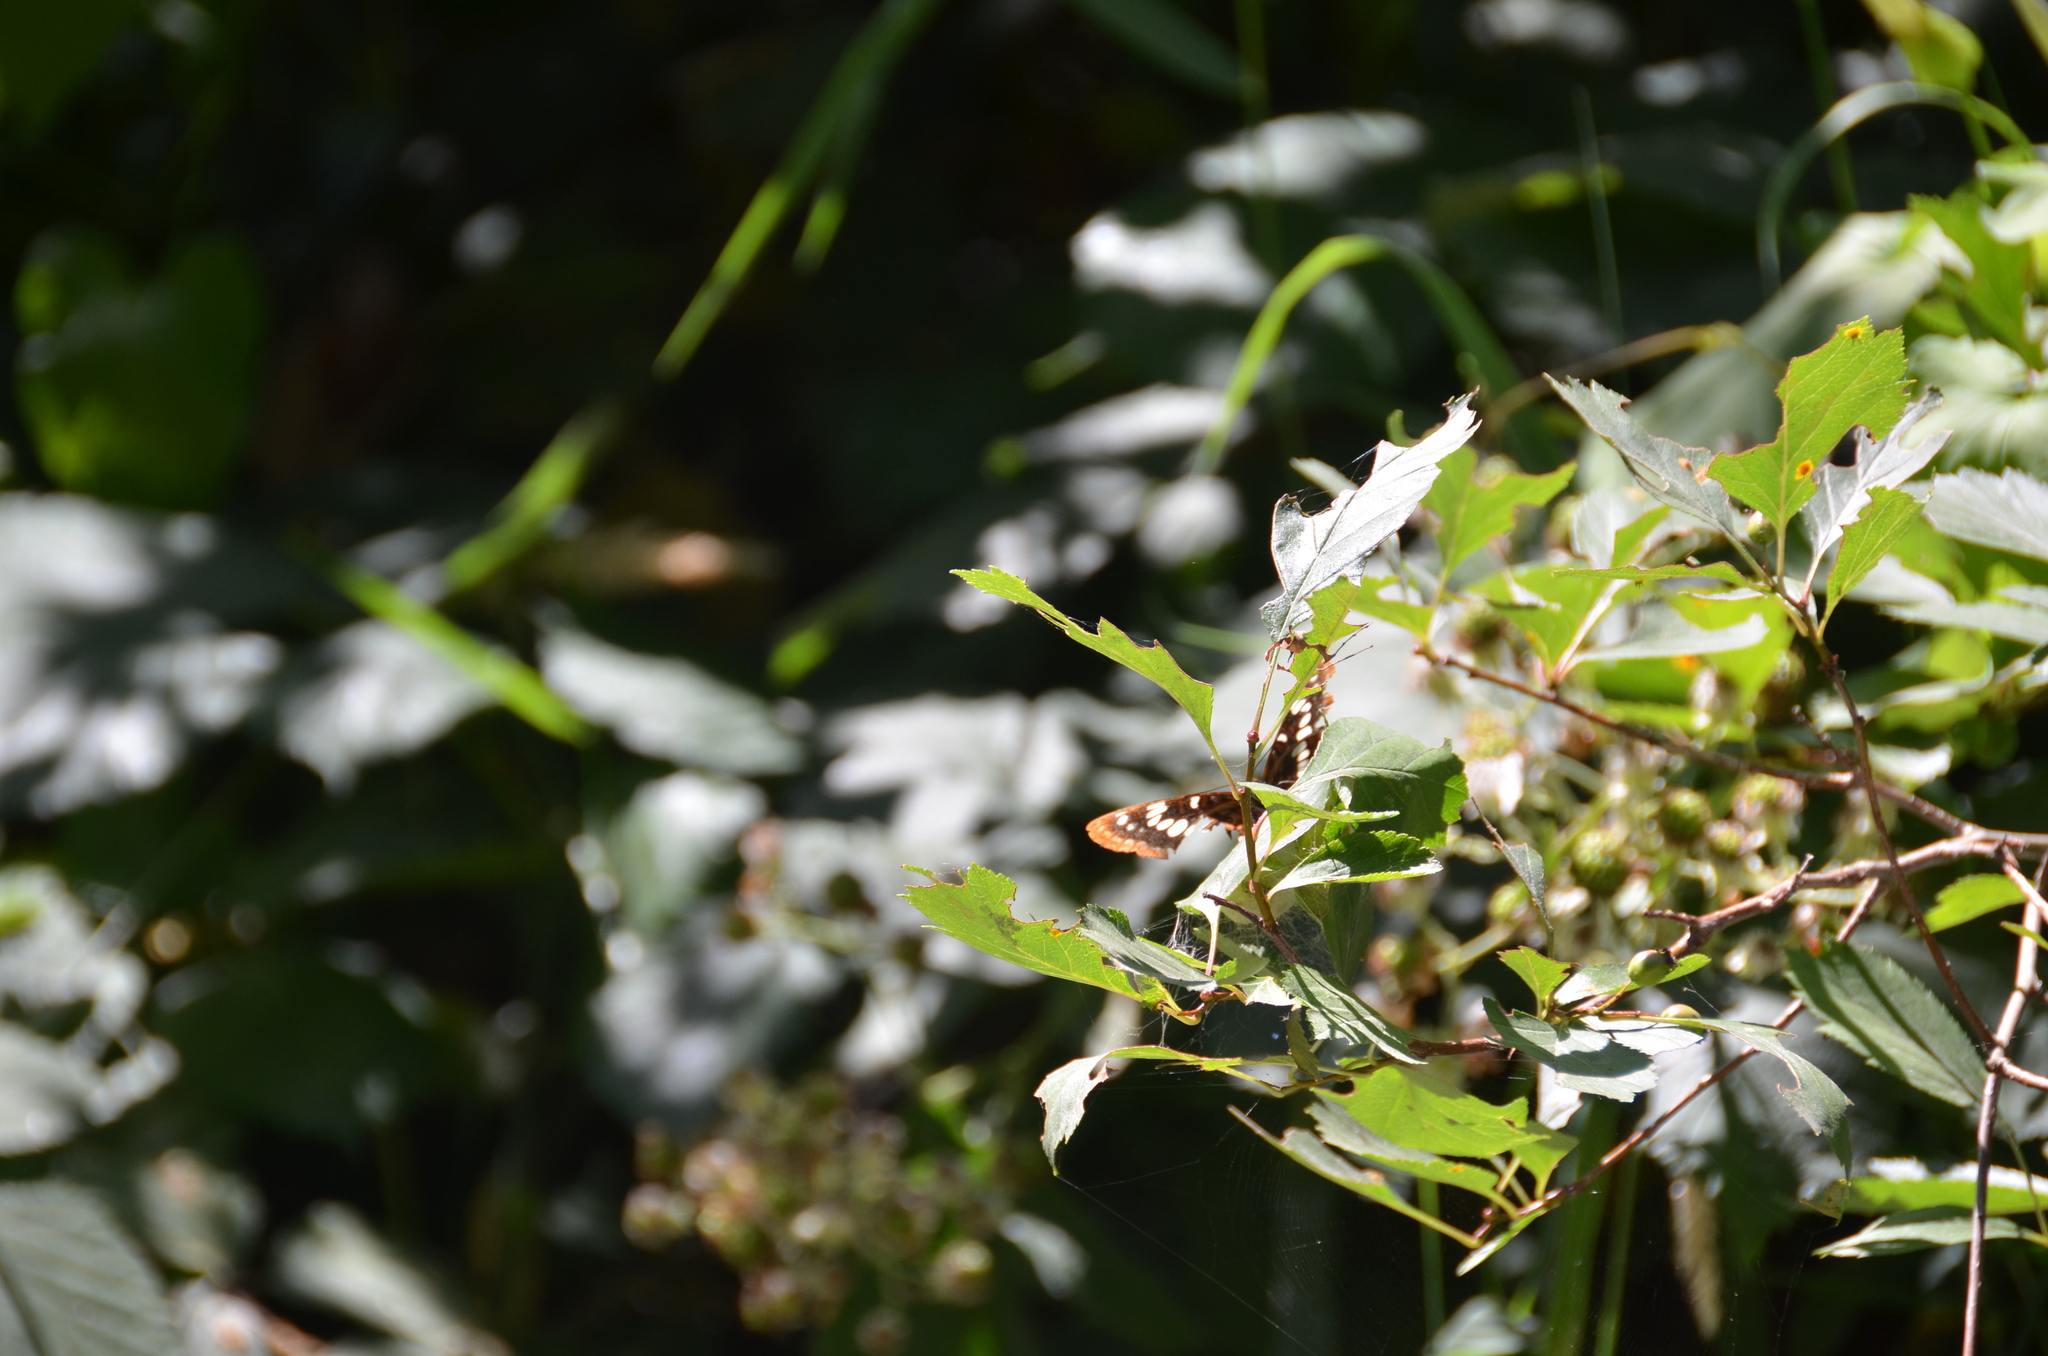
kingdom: Animalia
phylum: Arthropoda
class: Insecta
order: Lepidoptera
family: Nymphalidae
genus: Limenitis
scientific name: Limenitis lorquini
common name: Lorquin's admiral
